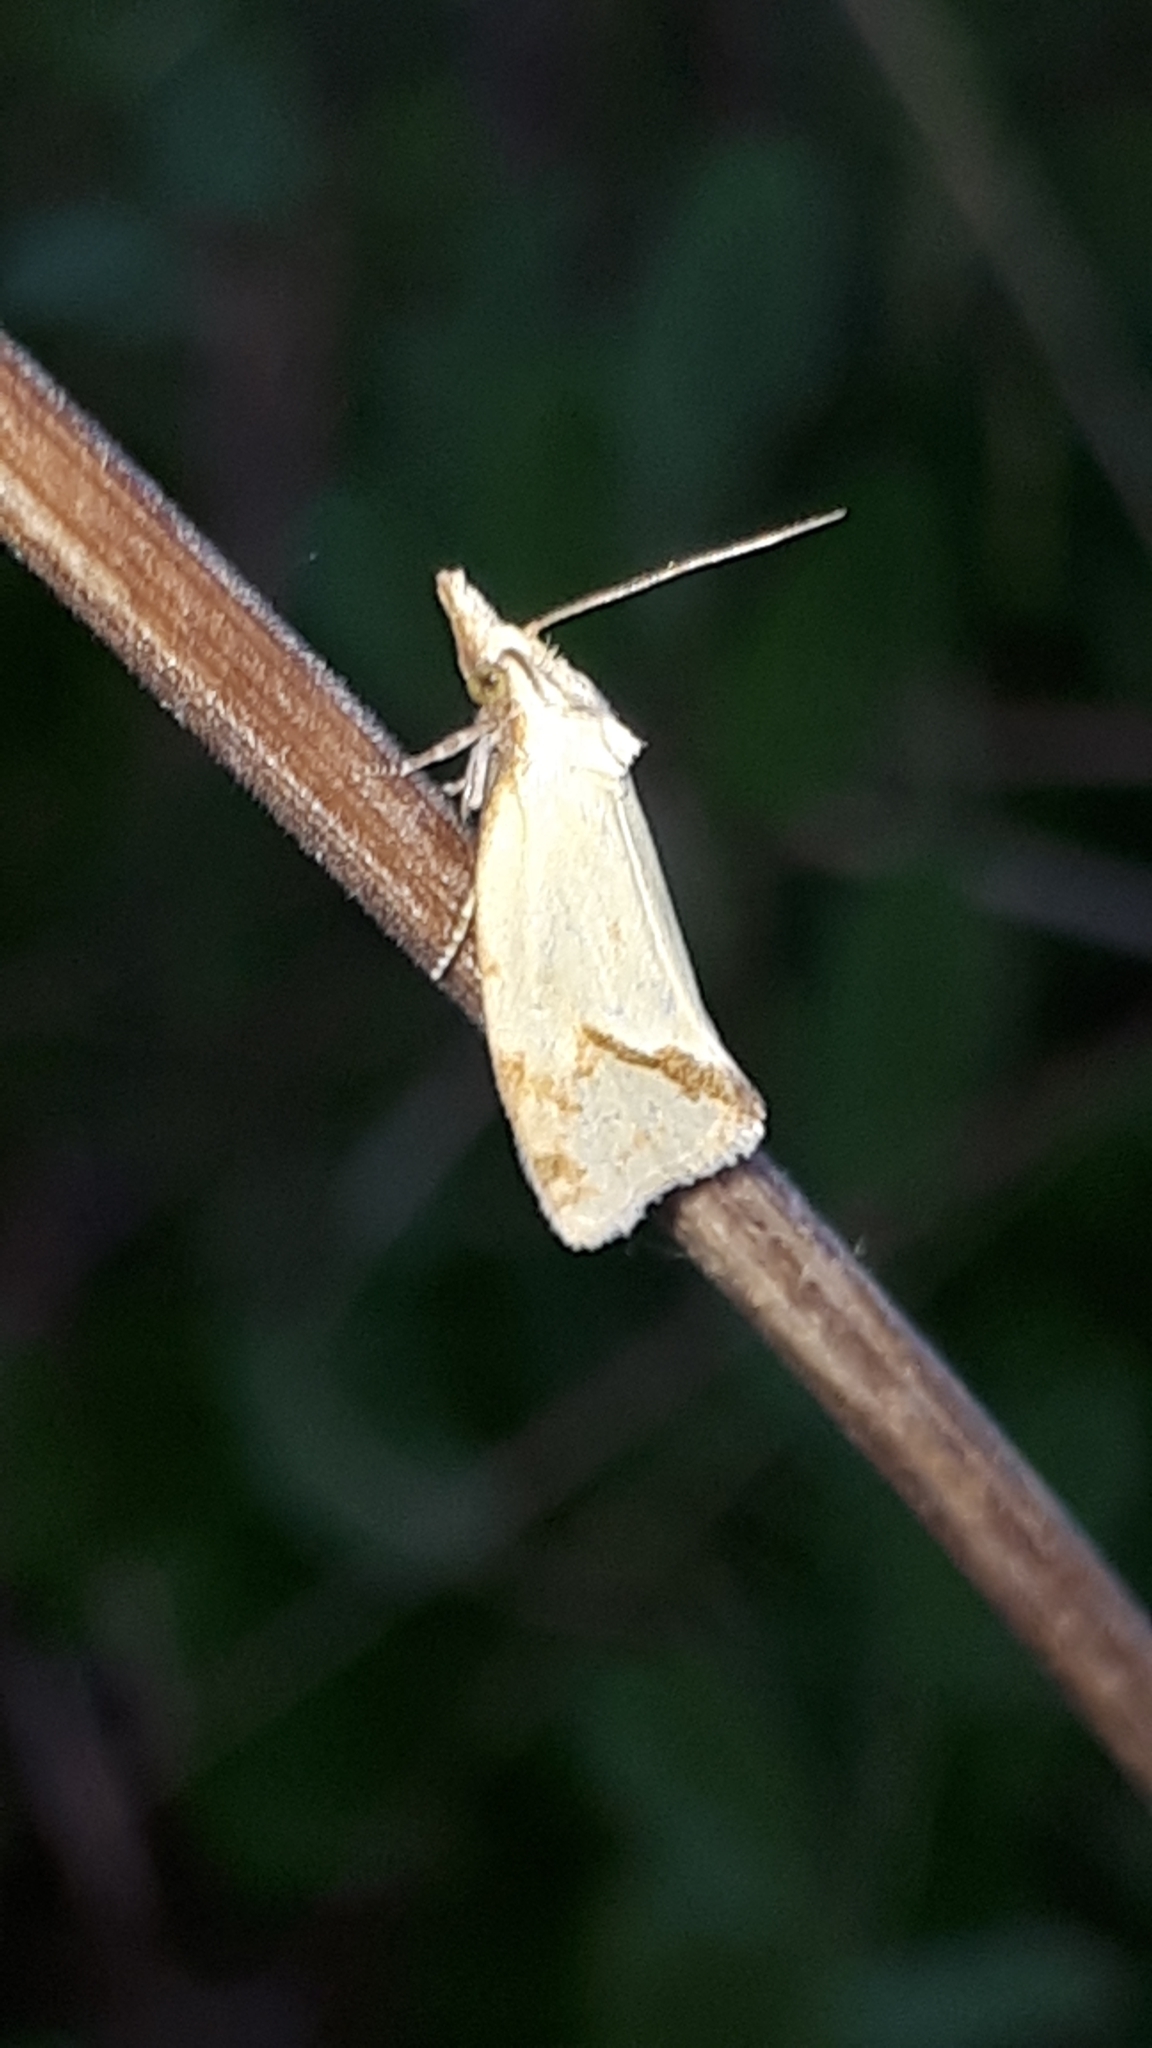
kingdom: Animalia
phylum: Arthropoda
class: Insecta
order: Lepidoptera
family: Tortricidae
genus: Agapeta
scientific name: Agapeta hamana
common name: Common yellow conch
